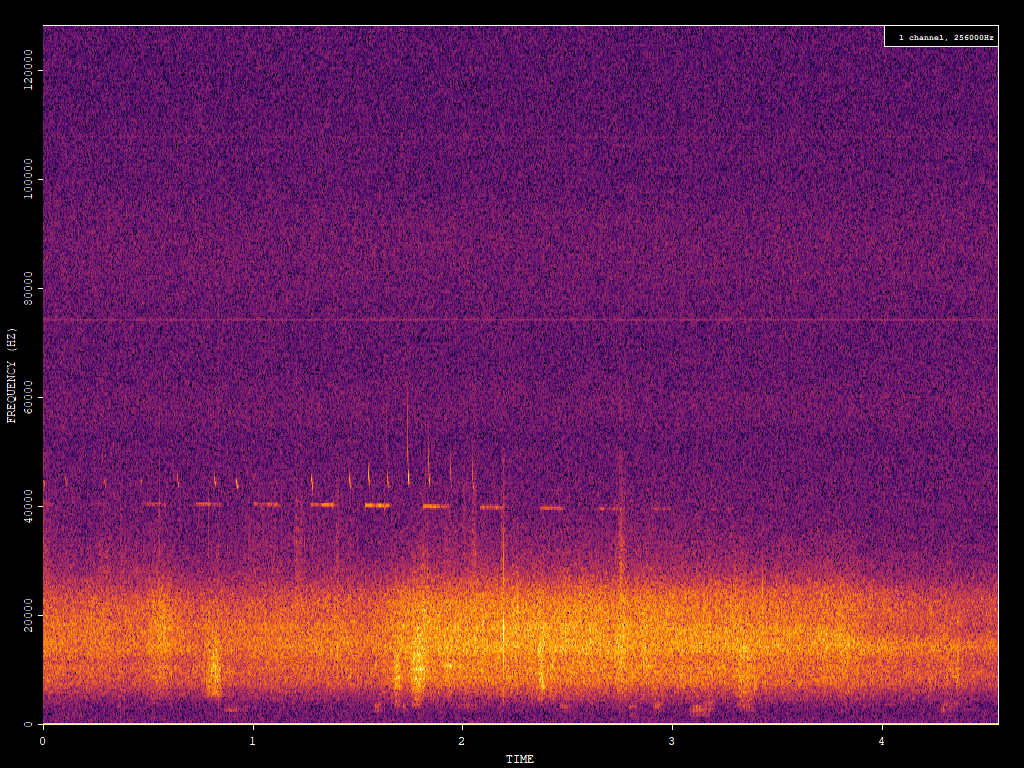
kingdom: Animalia
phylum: Chordata
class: Mammalia
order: Chiroptera
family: Vespertilionidae
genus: Pipistrellus
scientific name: Pipistrellus pipistrellus
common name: Common pipistrelle
